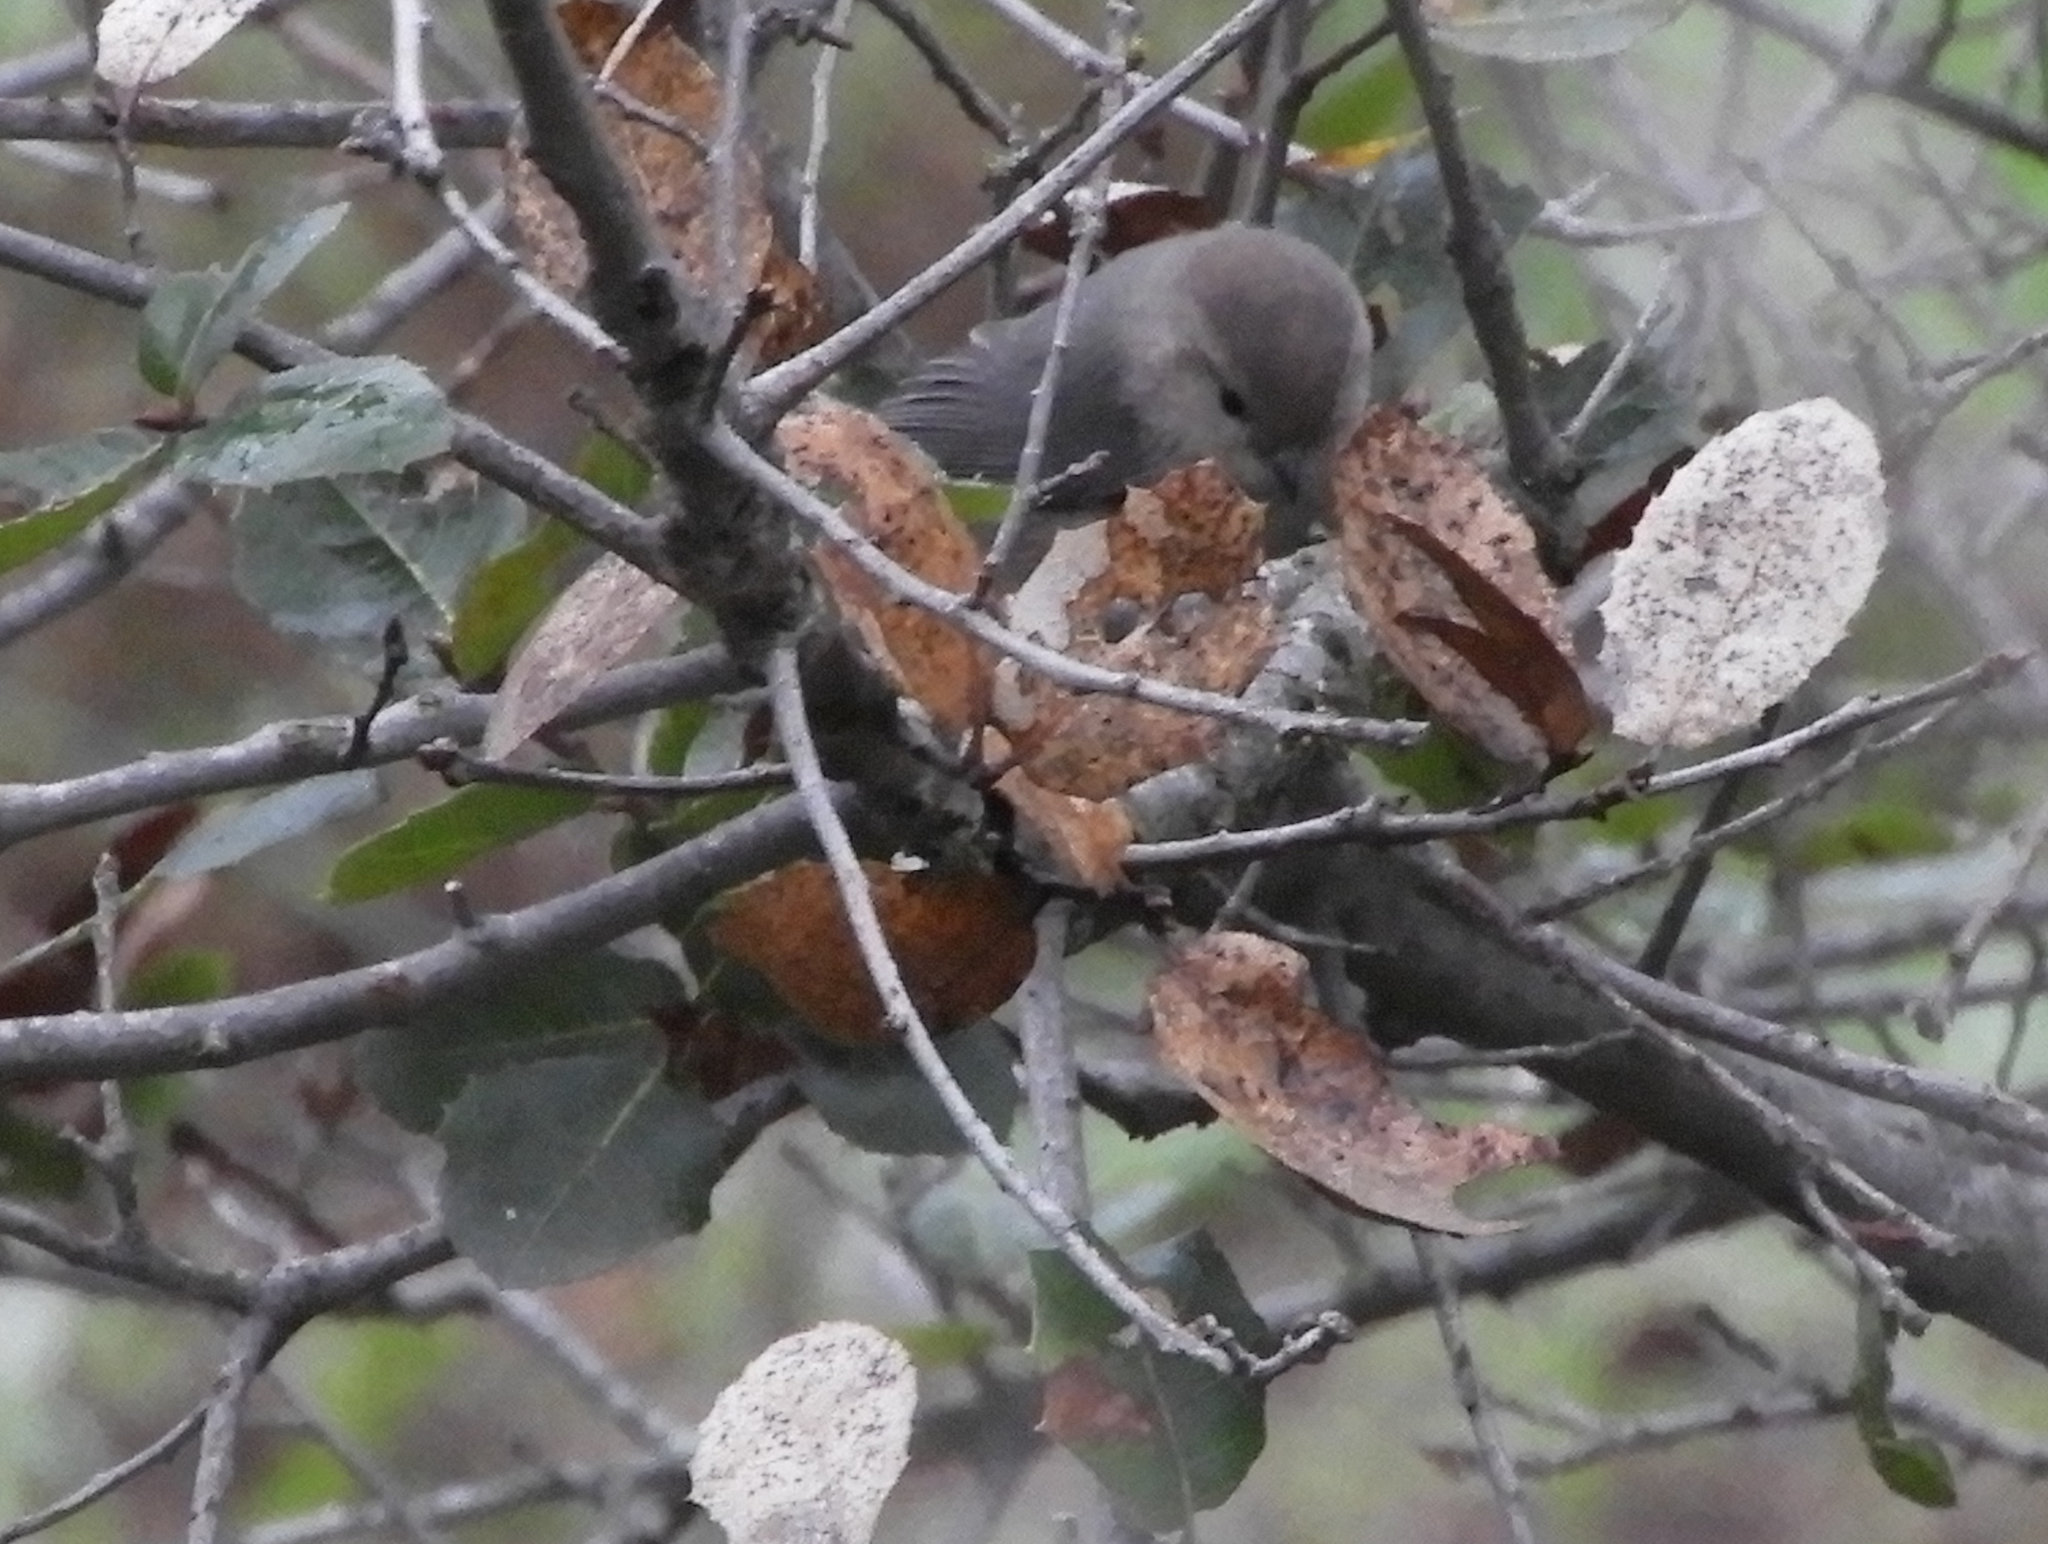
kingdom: Animalia
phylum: Chordata
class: Aves
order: Passeriformes
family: Aegithalidae
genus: Psaltriparus
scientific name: Psaltriparus minimus
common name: American bushtit
